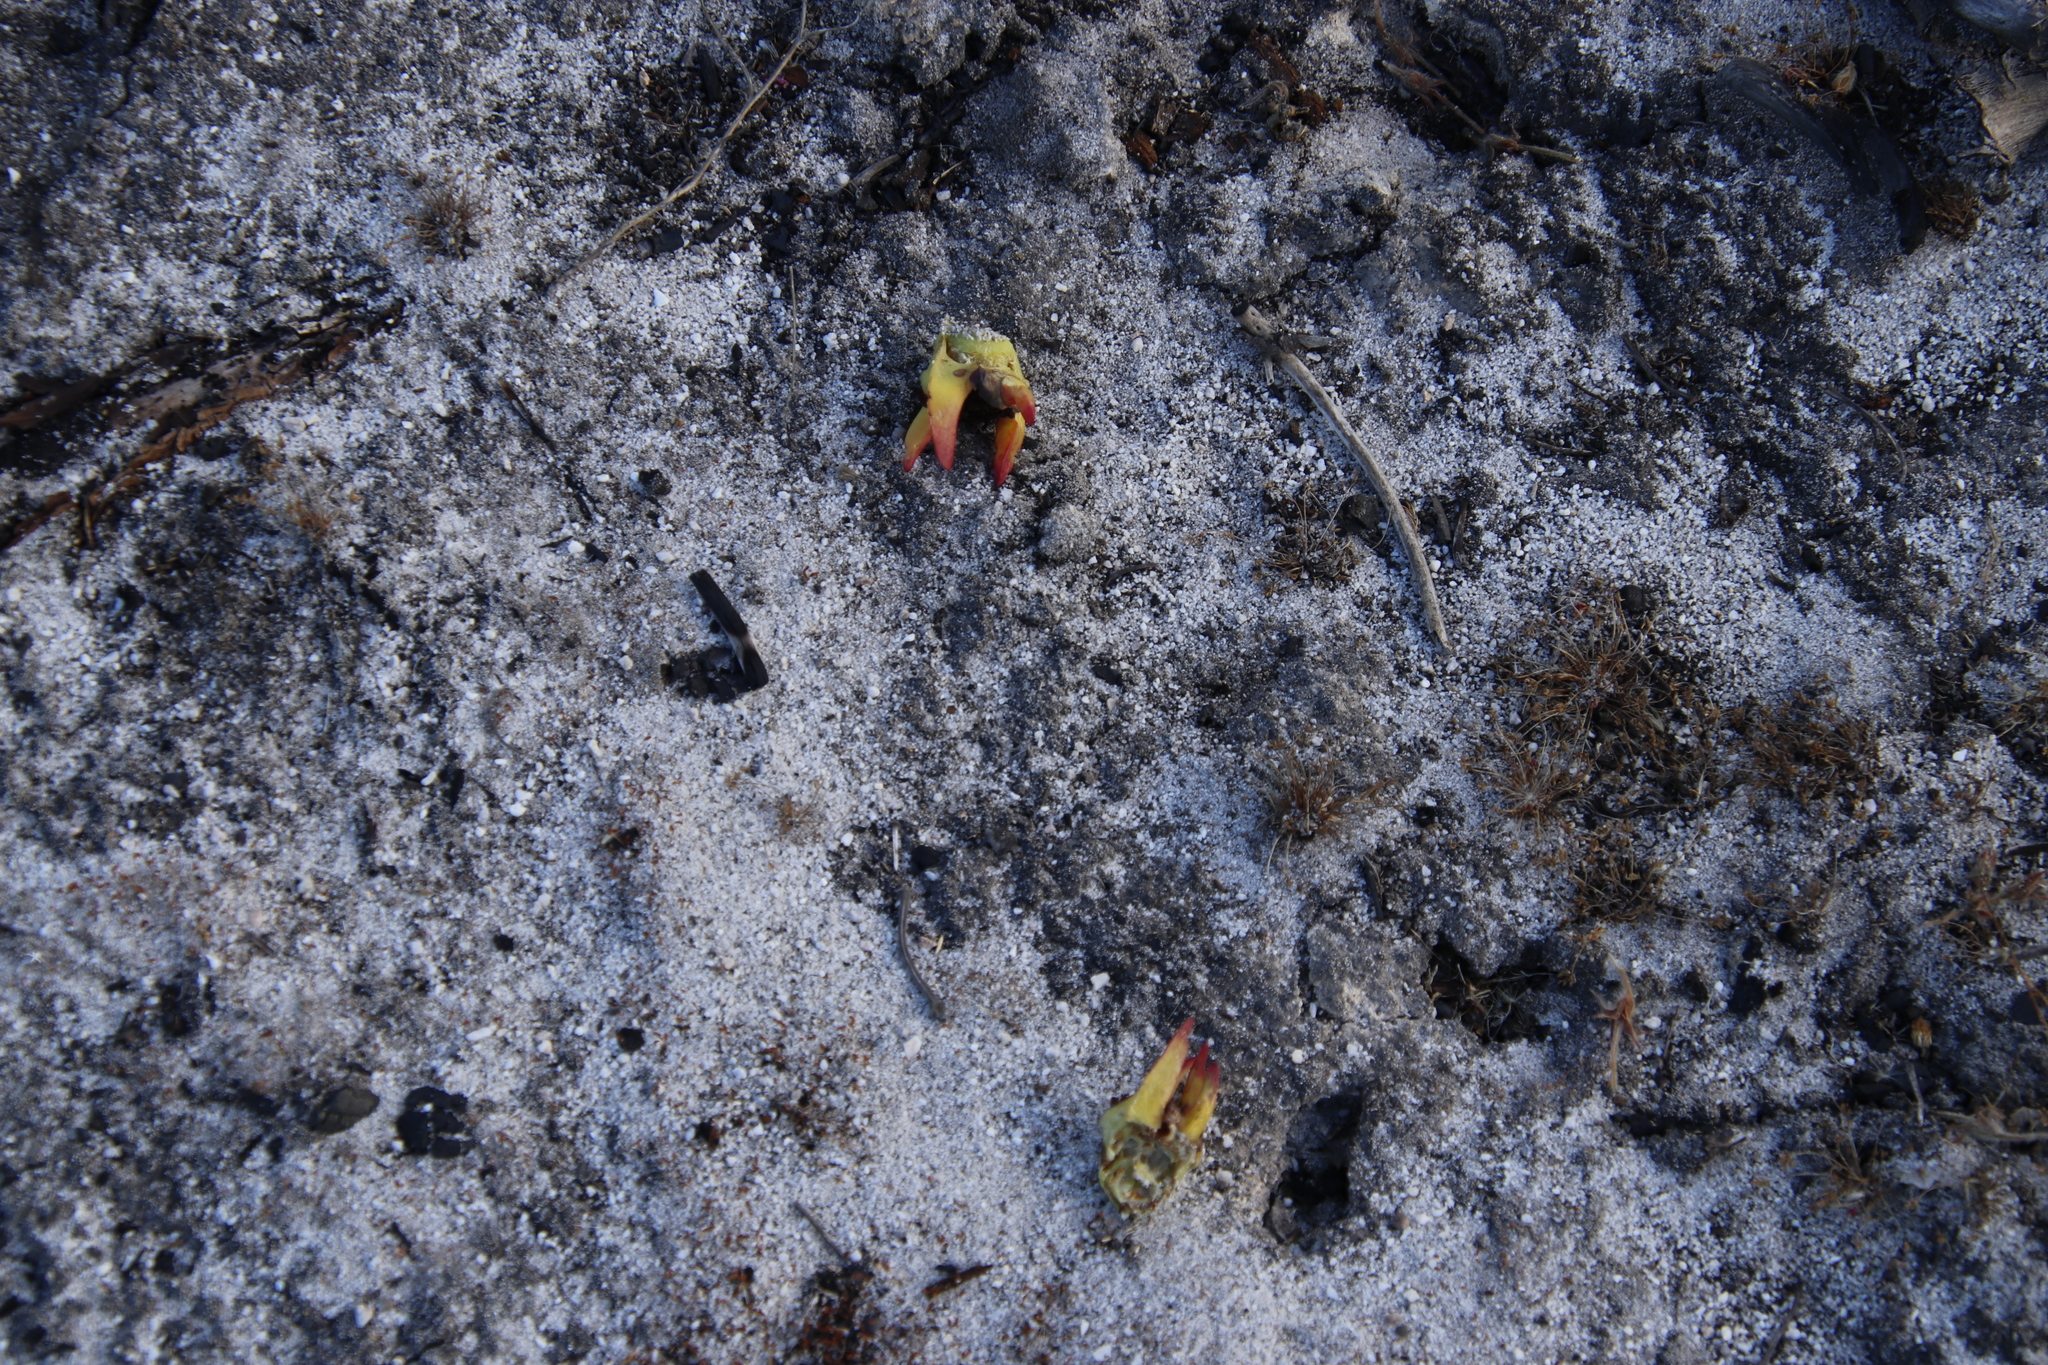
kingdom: Plantae
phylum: Tracheophyta
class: Magnoliopsida
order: Caryophyllales
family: Aizoaceae
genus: Carpobrotus
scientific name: Carpobrotus edulis
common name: Hottentot-fig
